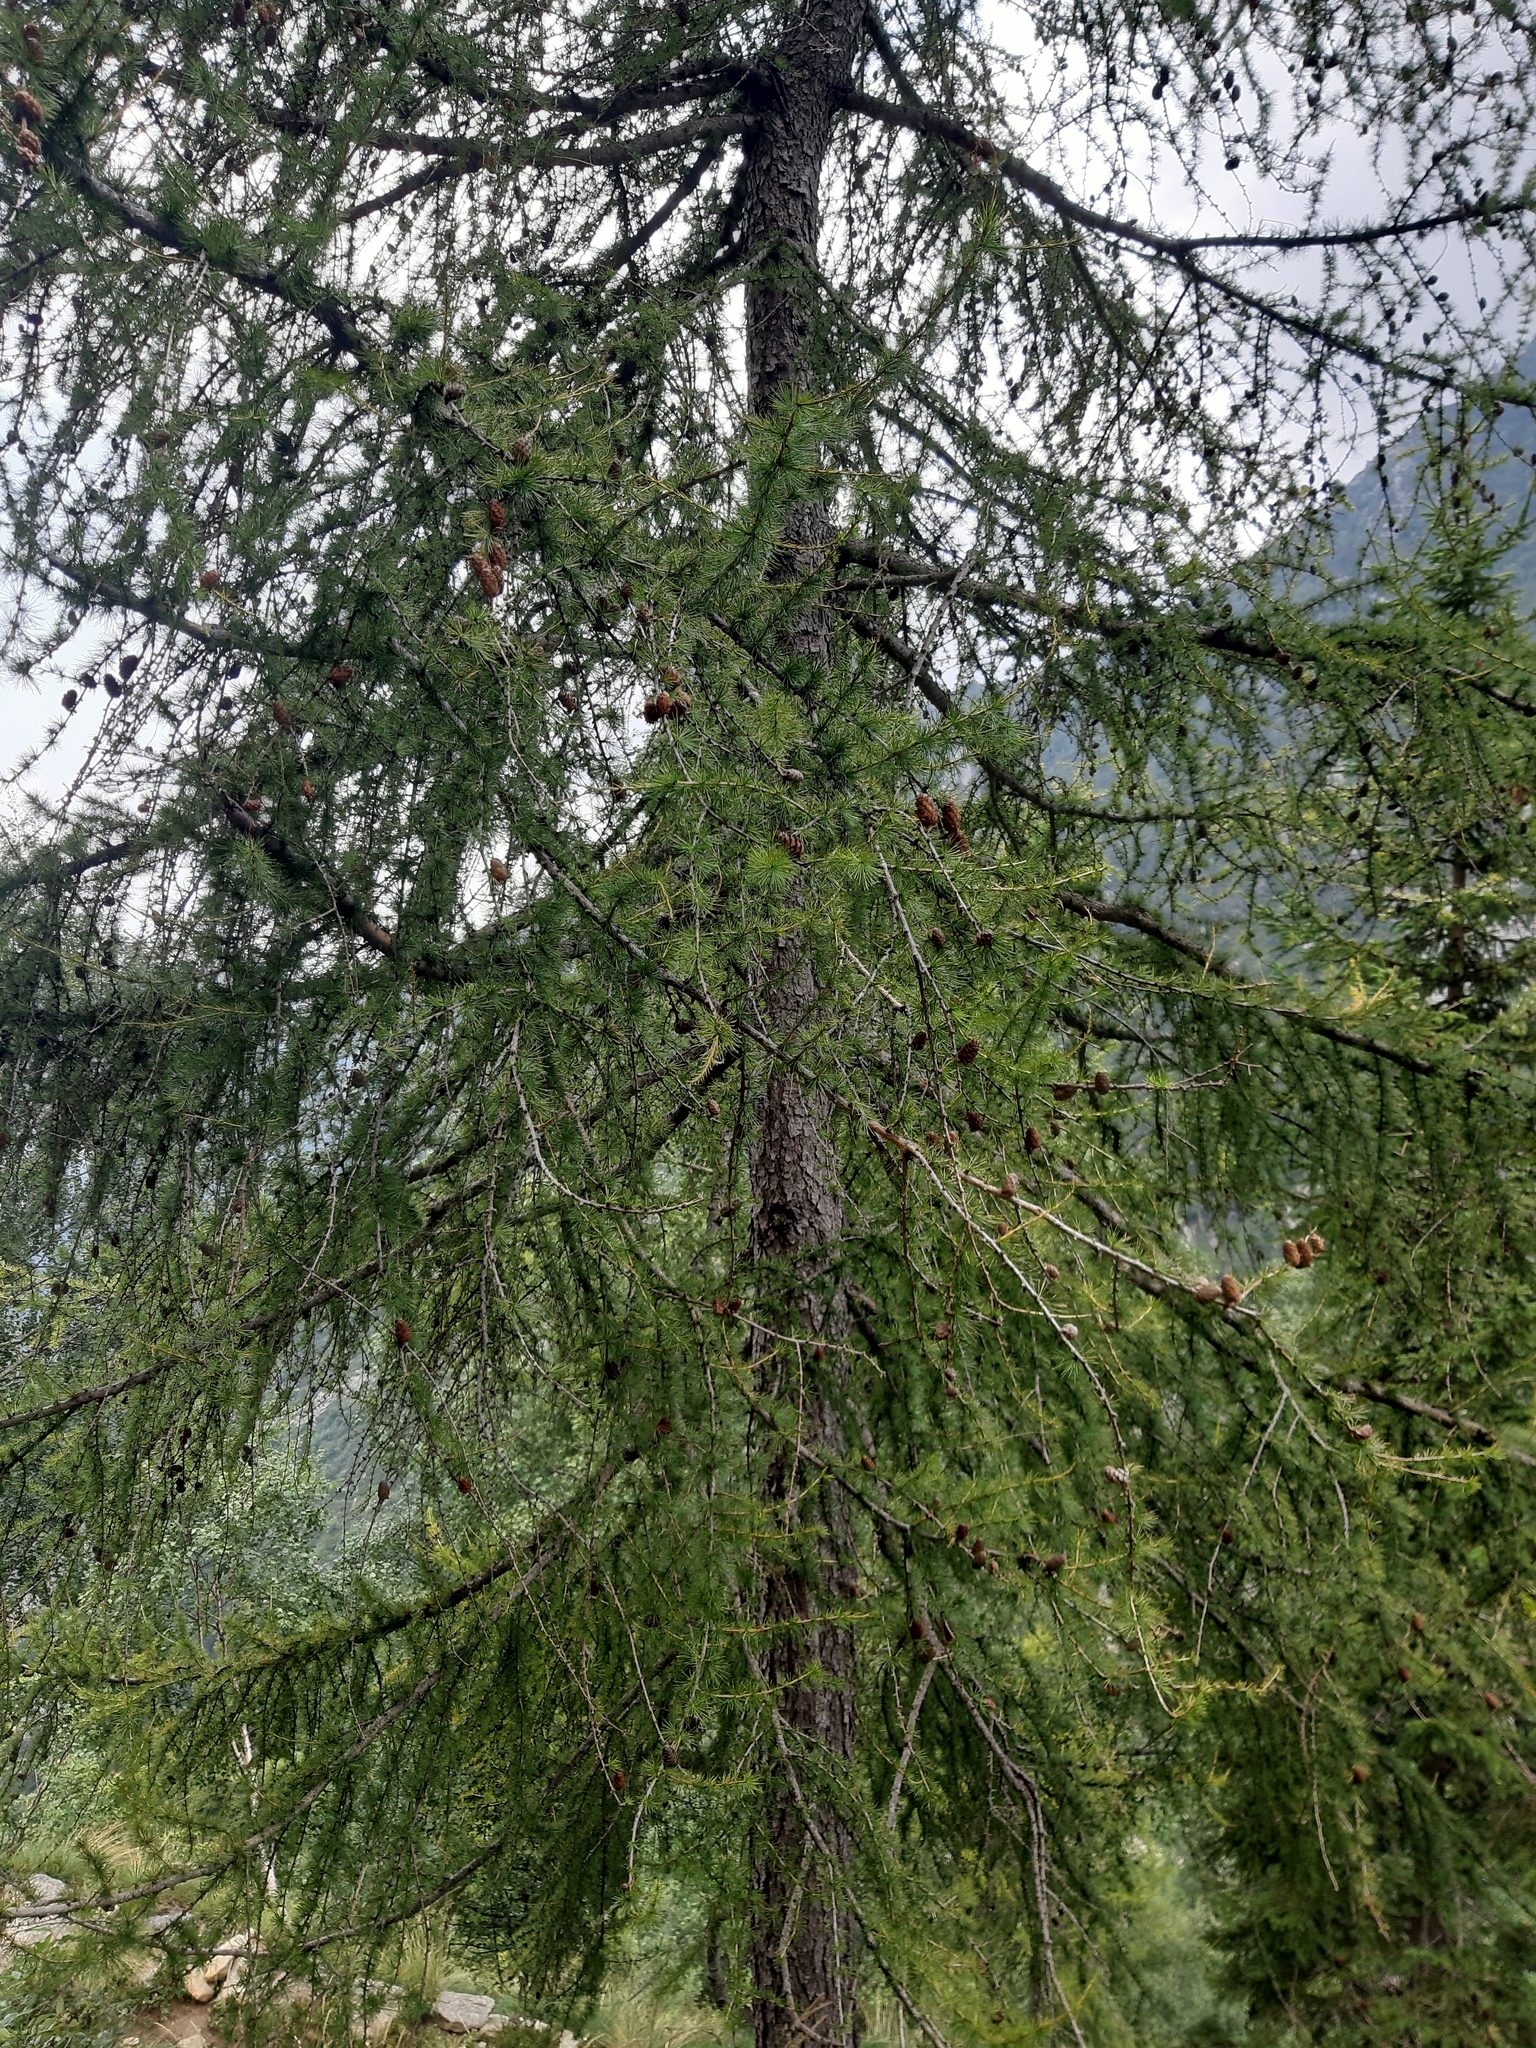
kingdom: Plantae
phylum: Tracheophyta
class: Pinopsida
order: Pinales
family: Pinaceae
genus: Larix
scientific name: Larix decidua
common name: European larch
